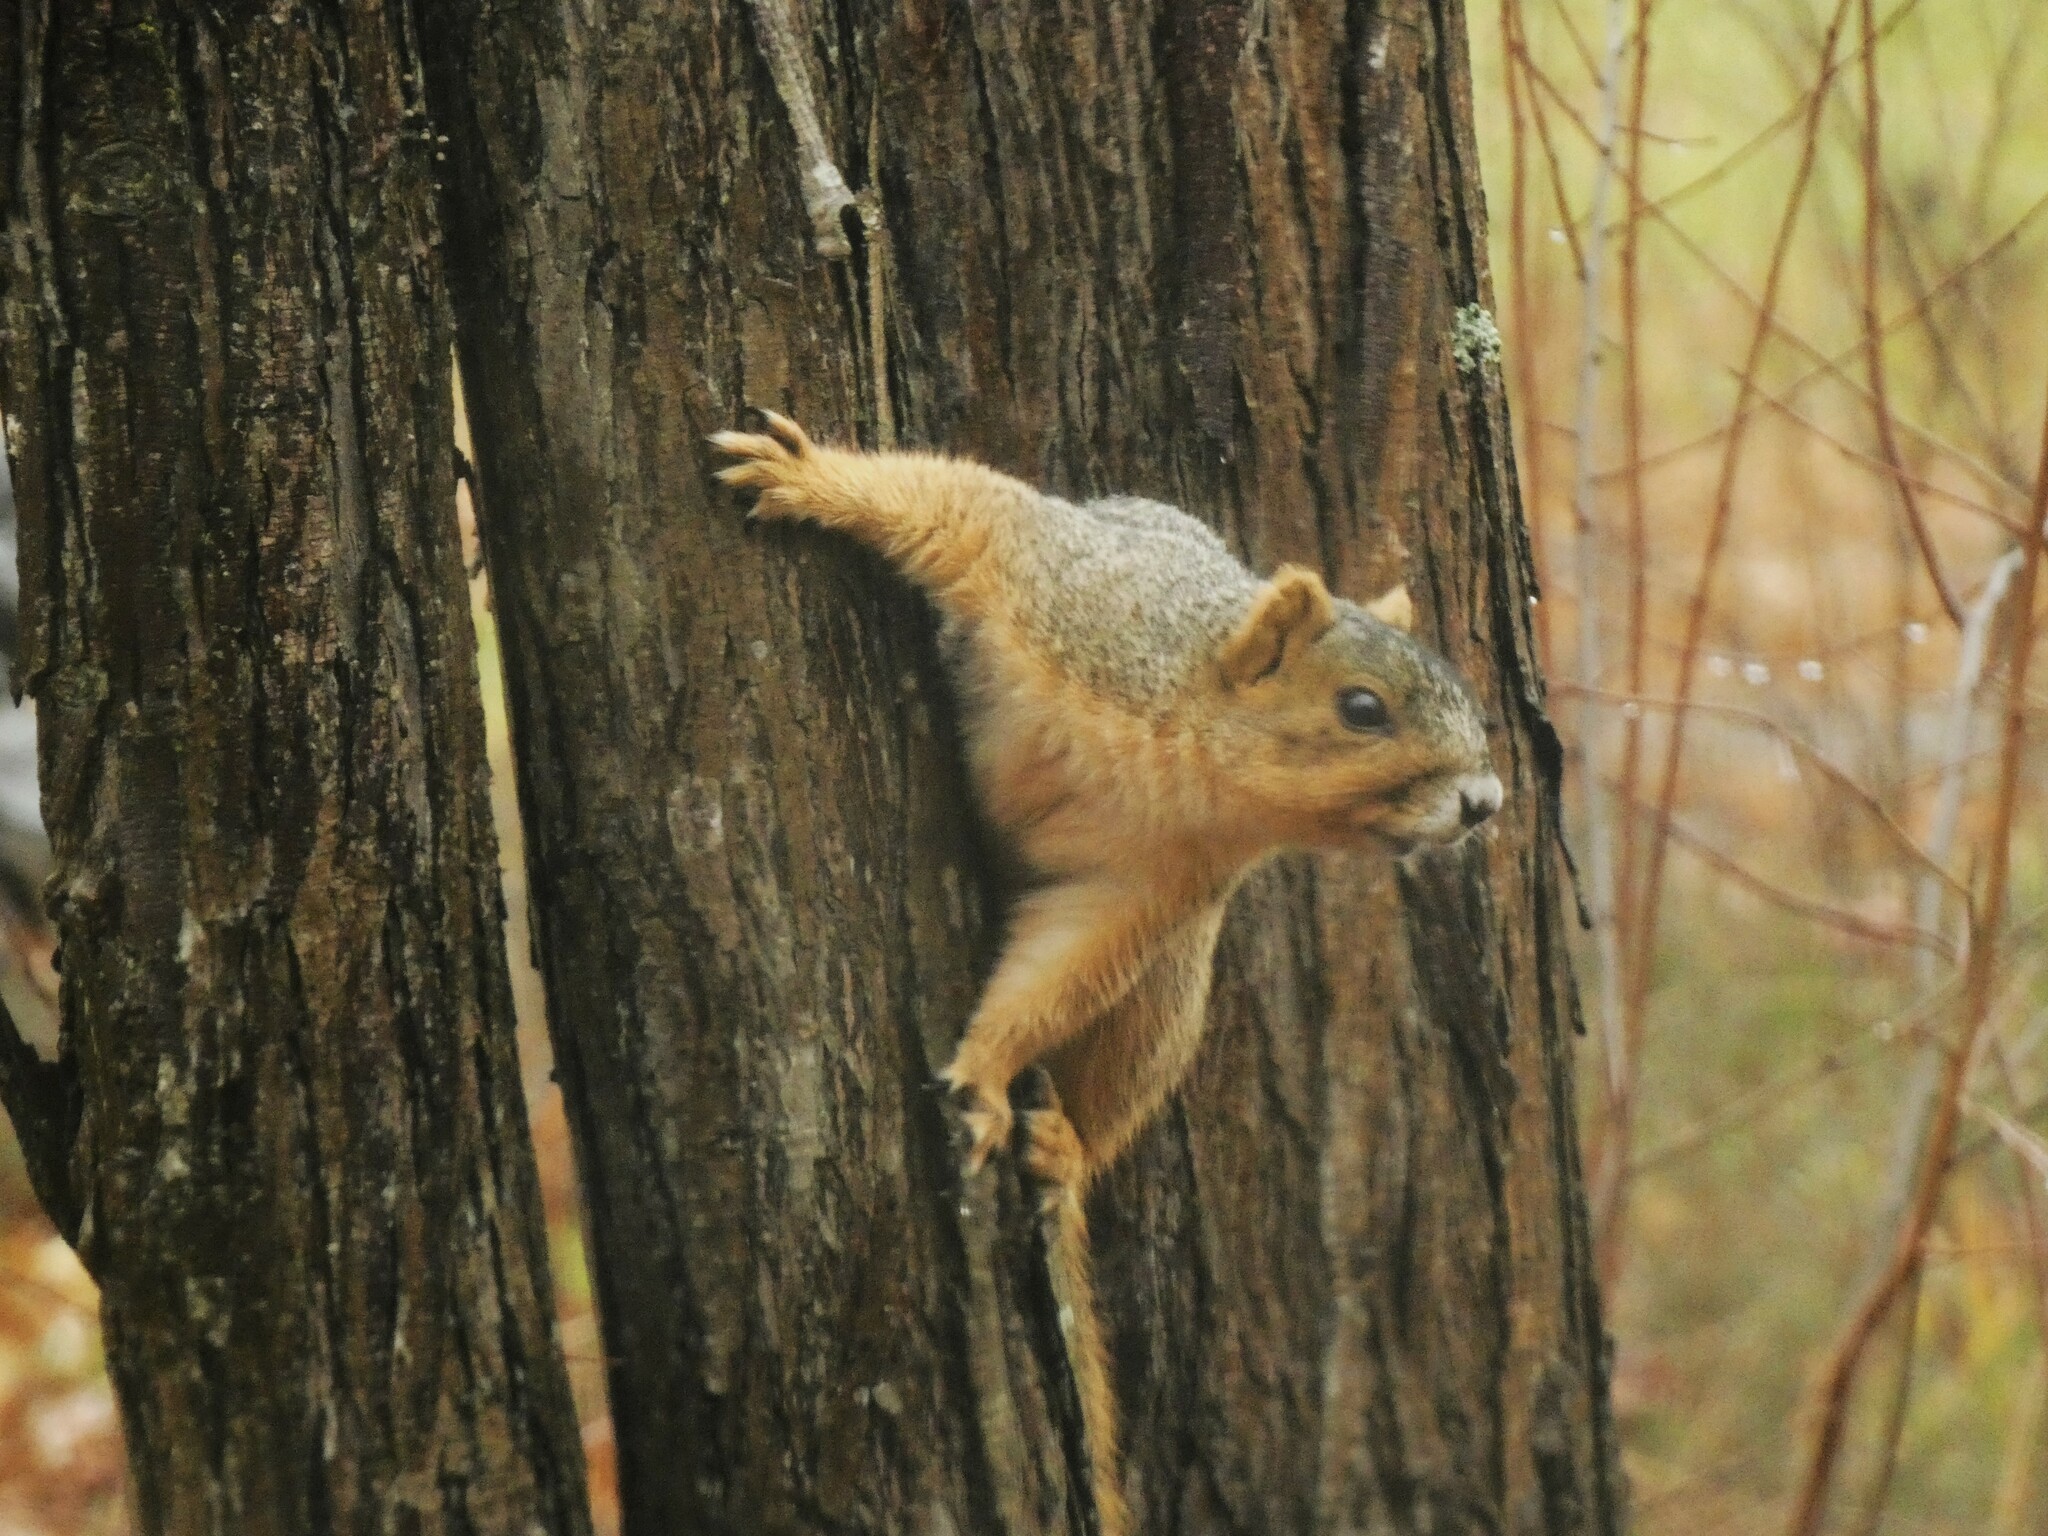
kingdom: Animalia
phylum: Chordata
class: Mammalia
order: Rodentia
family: Sciuridae
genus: Sciurus
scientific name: Sciurus niger
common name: Fox squirrel
